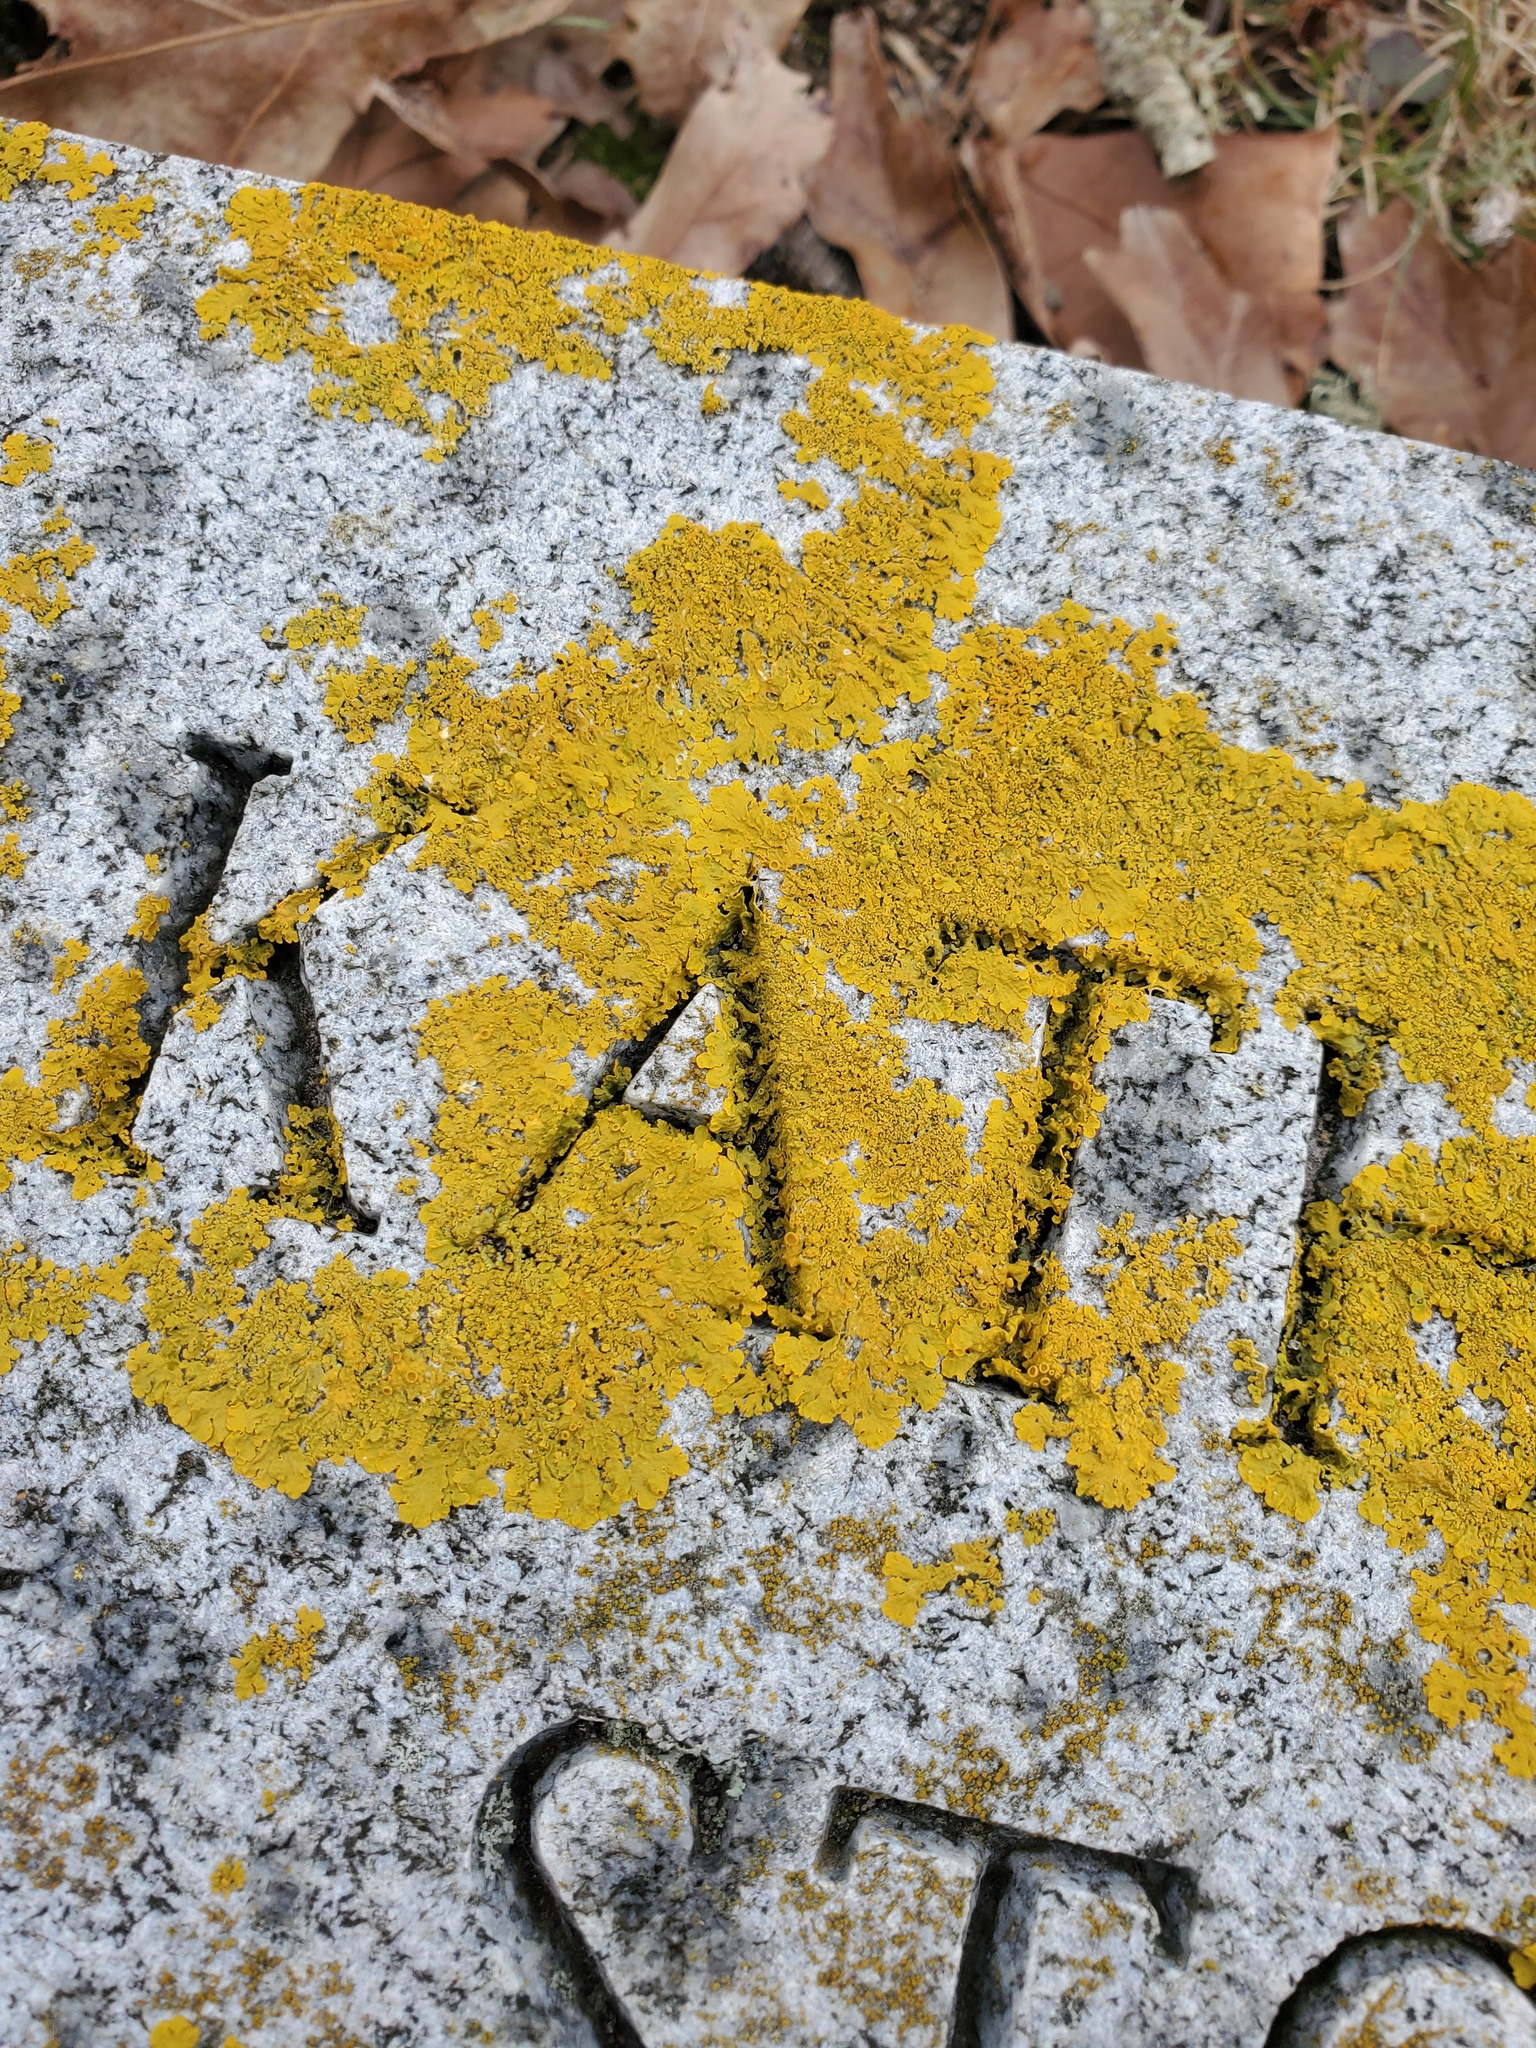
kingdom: Fungi
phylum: Ascomycota
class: Lecanoromycetes
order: Teloschistales
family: Teloschistaceae
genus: Xanthoria
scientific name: Xanthoria parietina
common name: Common orange lichen
